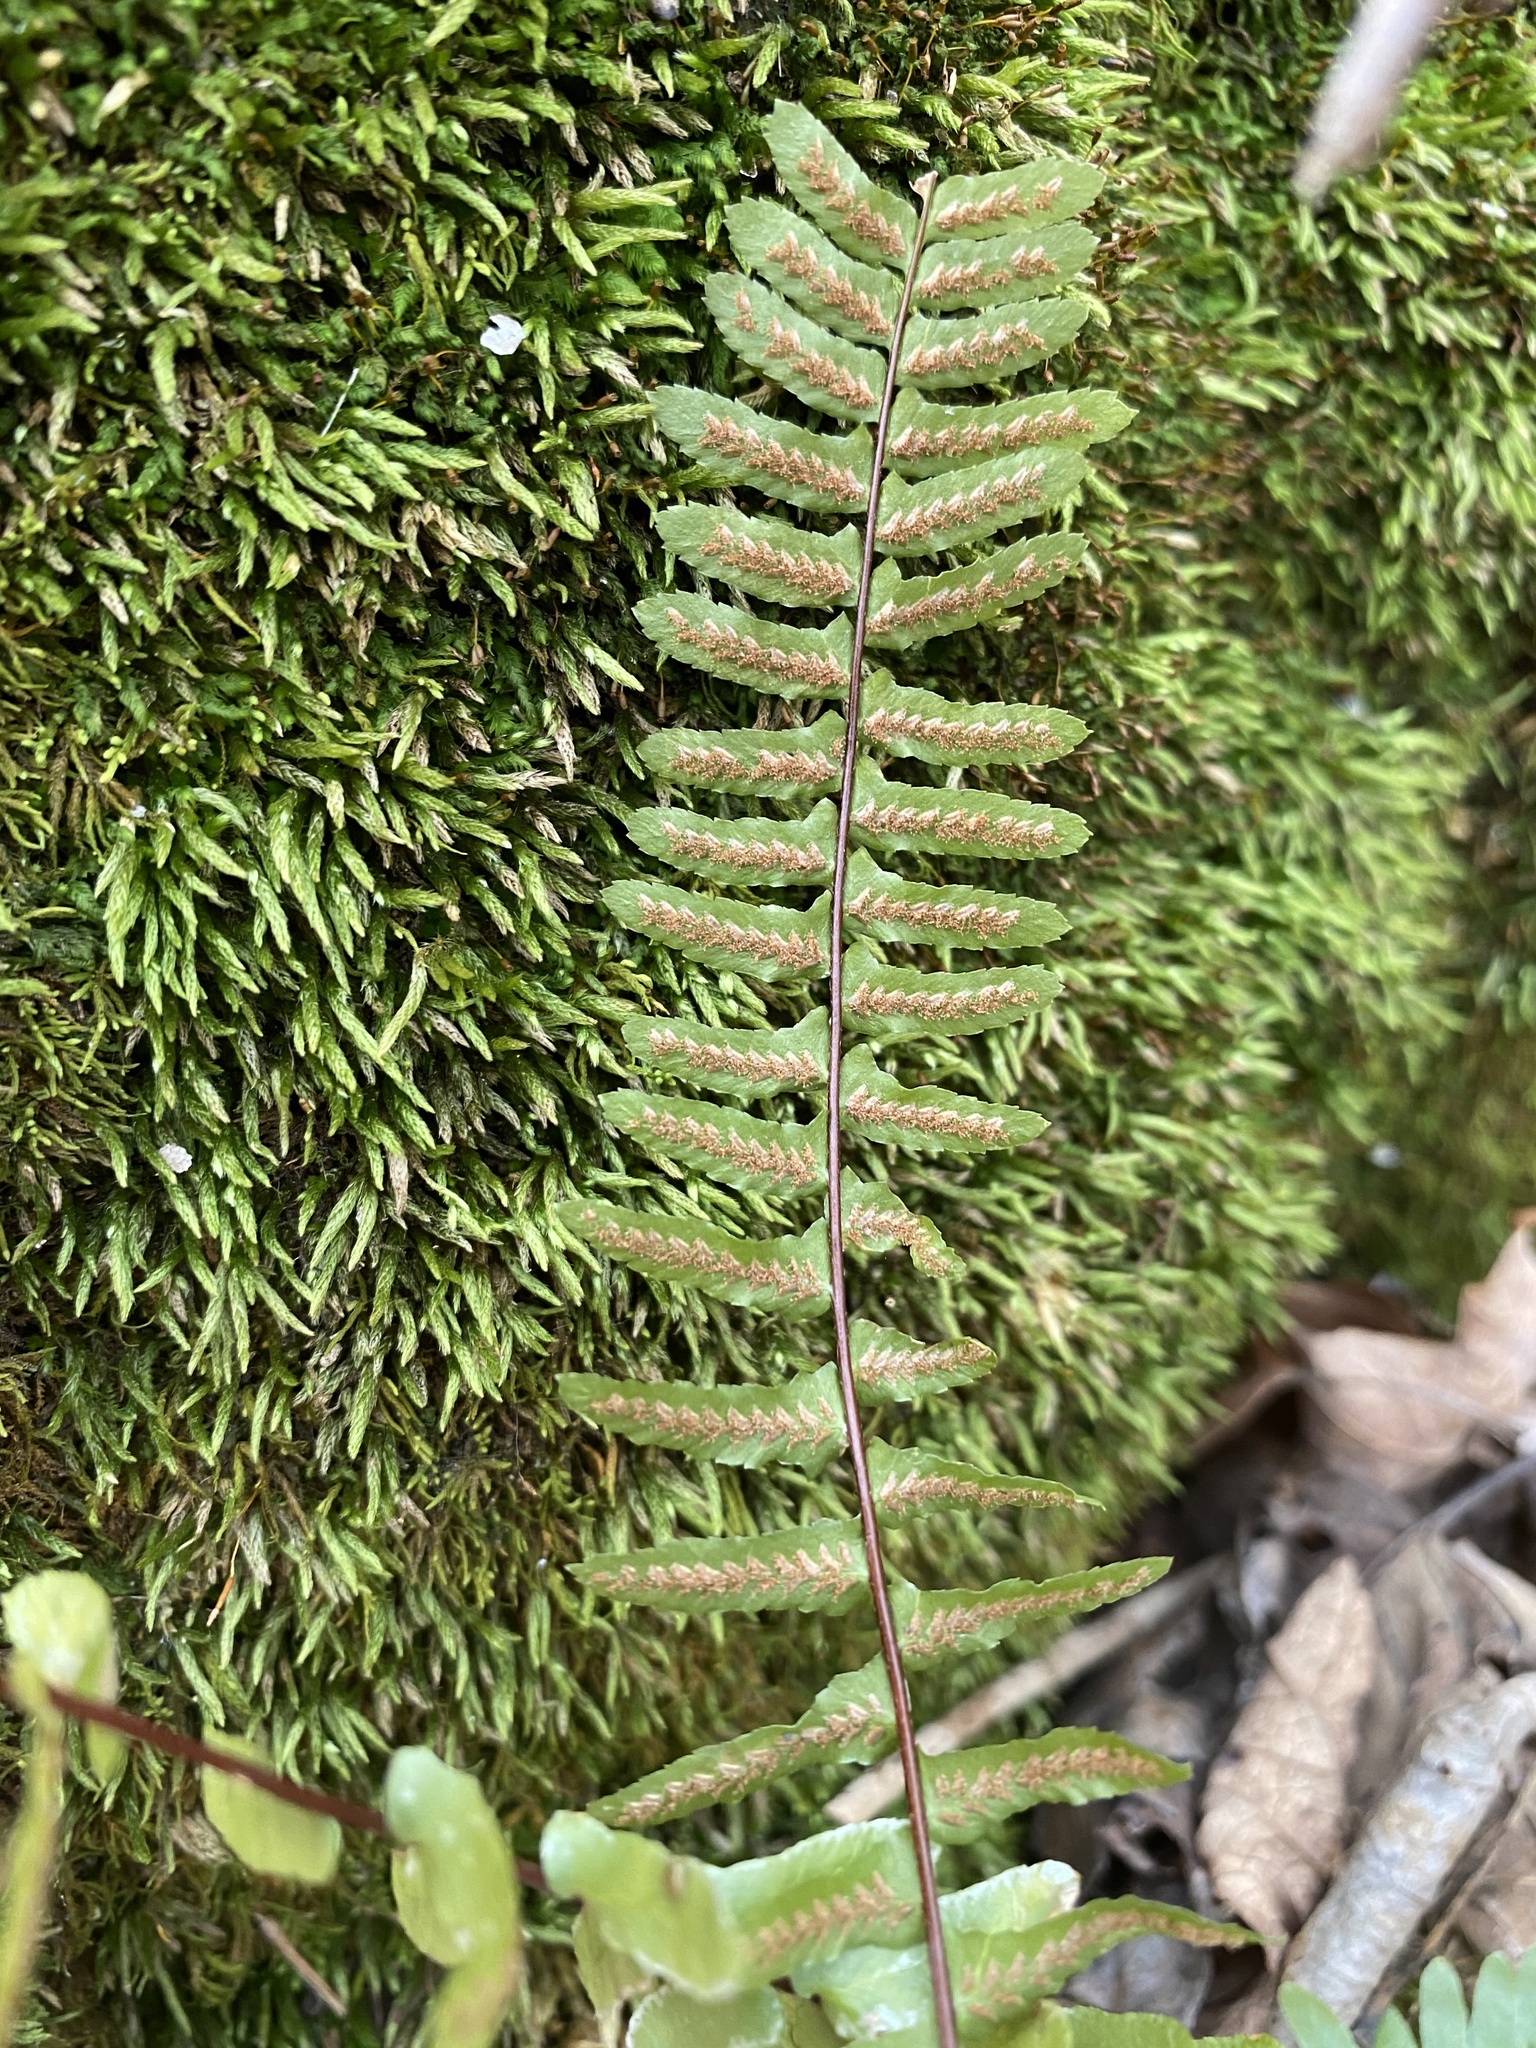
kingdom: Plantae
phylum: Tracheophyta
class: Polypodiopsida
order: Polypodiales
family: Aspleniaceae
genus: Asplenium
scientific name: Asplenium platyneuron
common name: Ebony spleenwort
